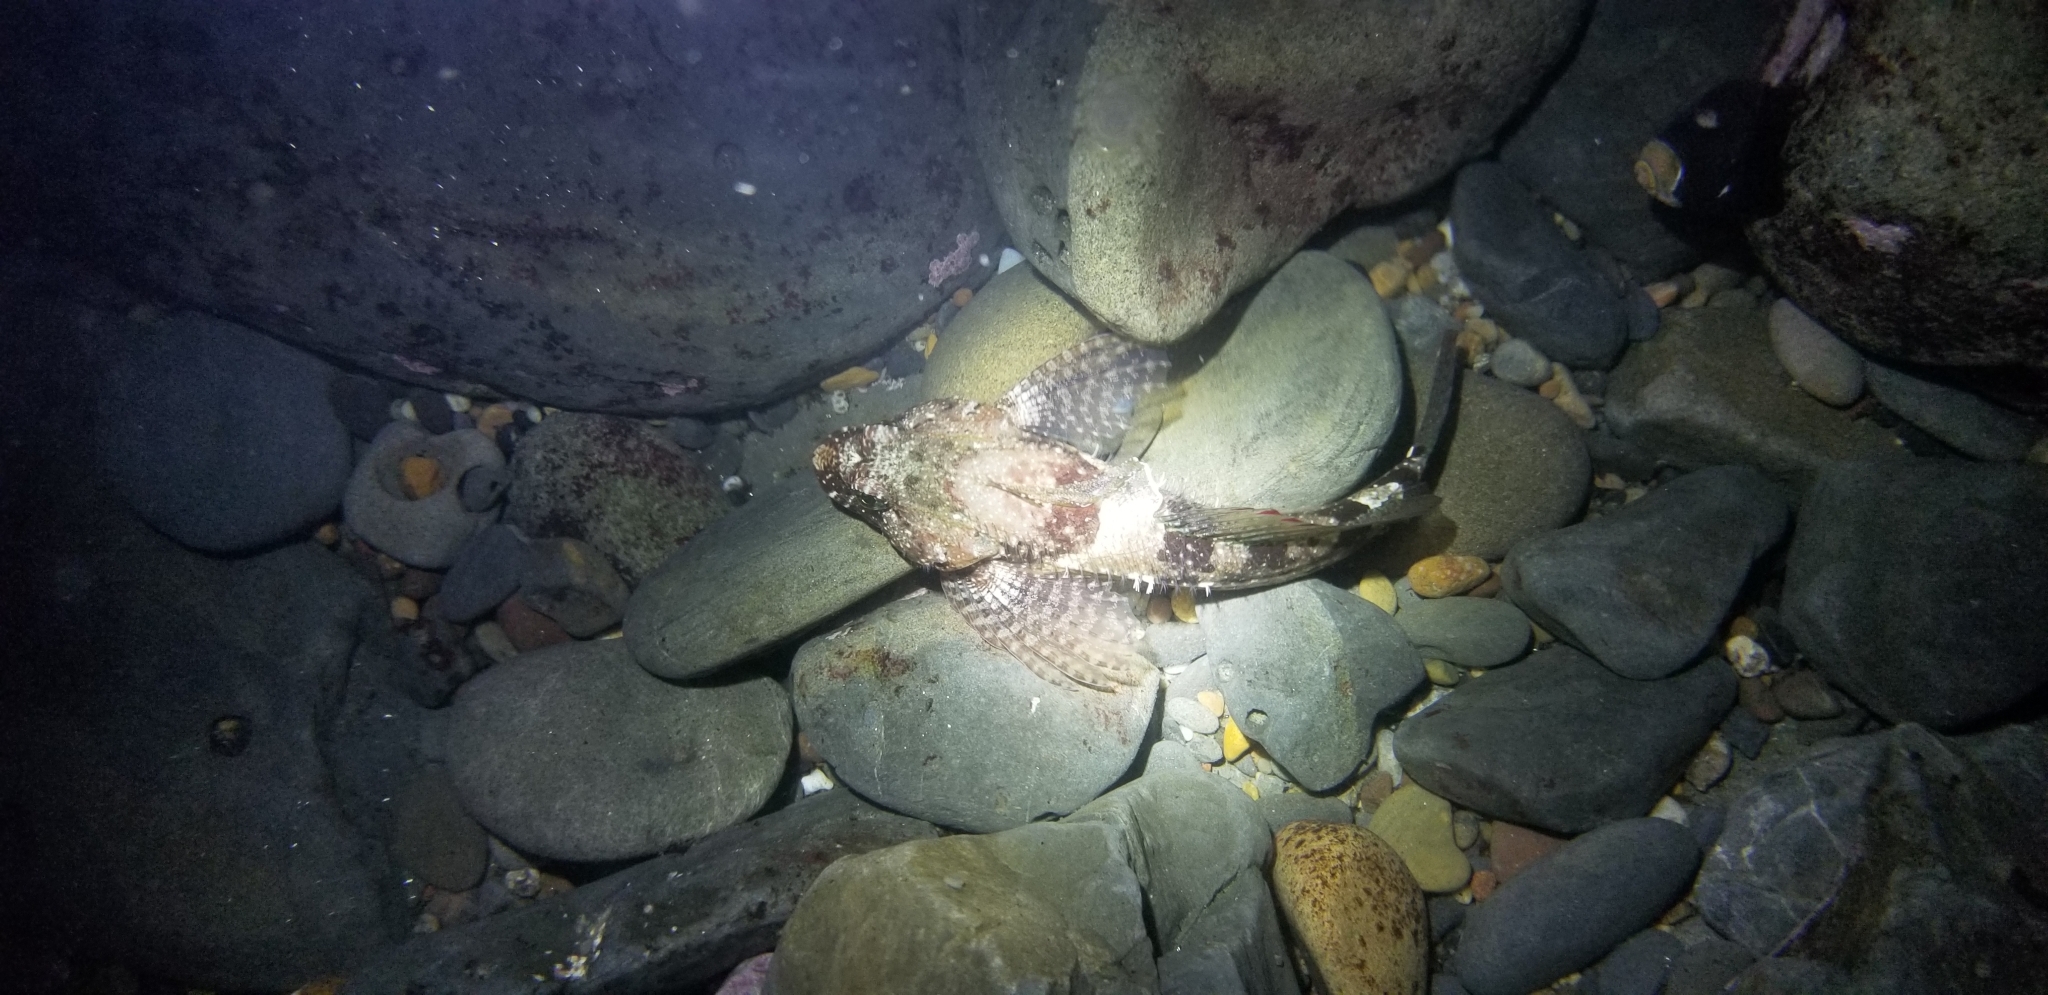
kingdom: Animalia
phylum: Chordata
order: Scorpaeniformes
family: Cottidae
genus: Clinocottus
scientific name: Clinocottus analis
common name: Woolly sculpin
